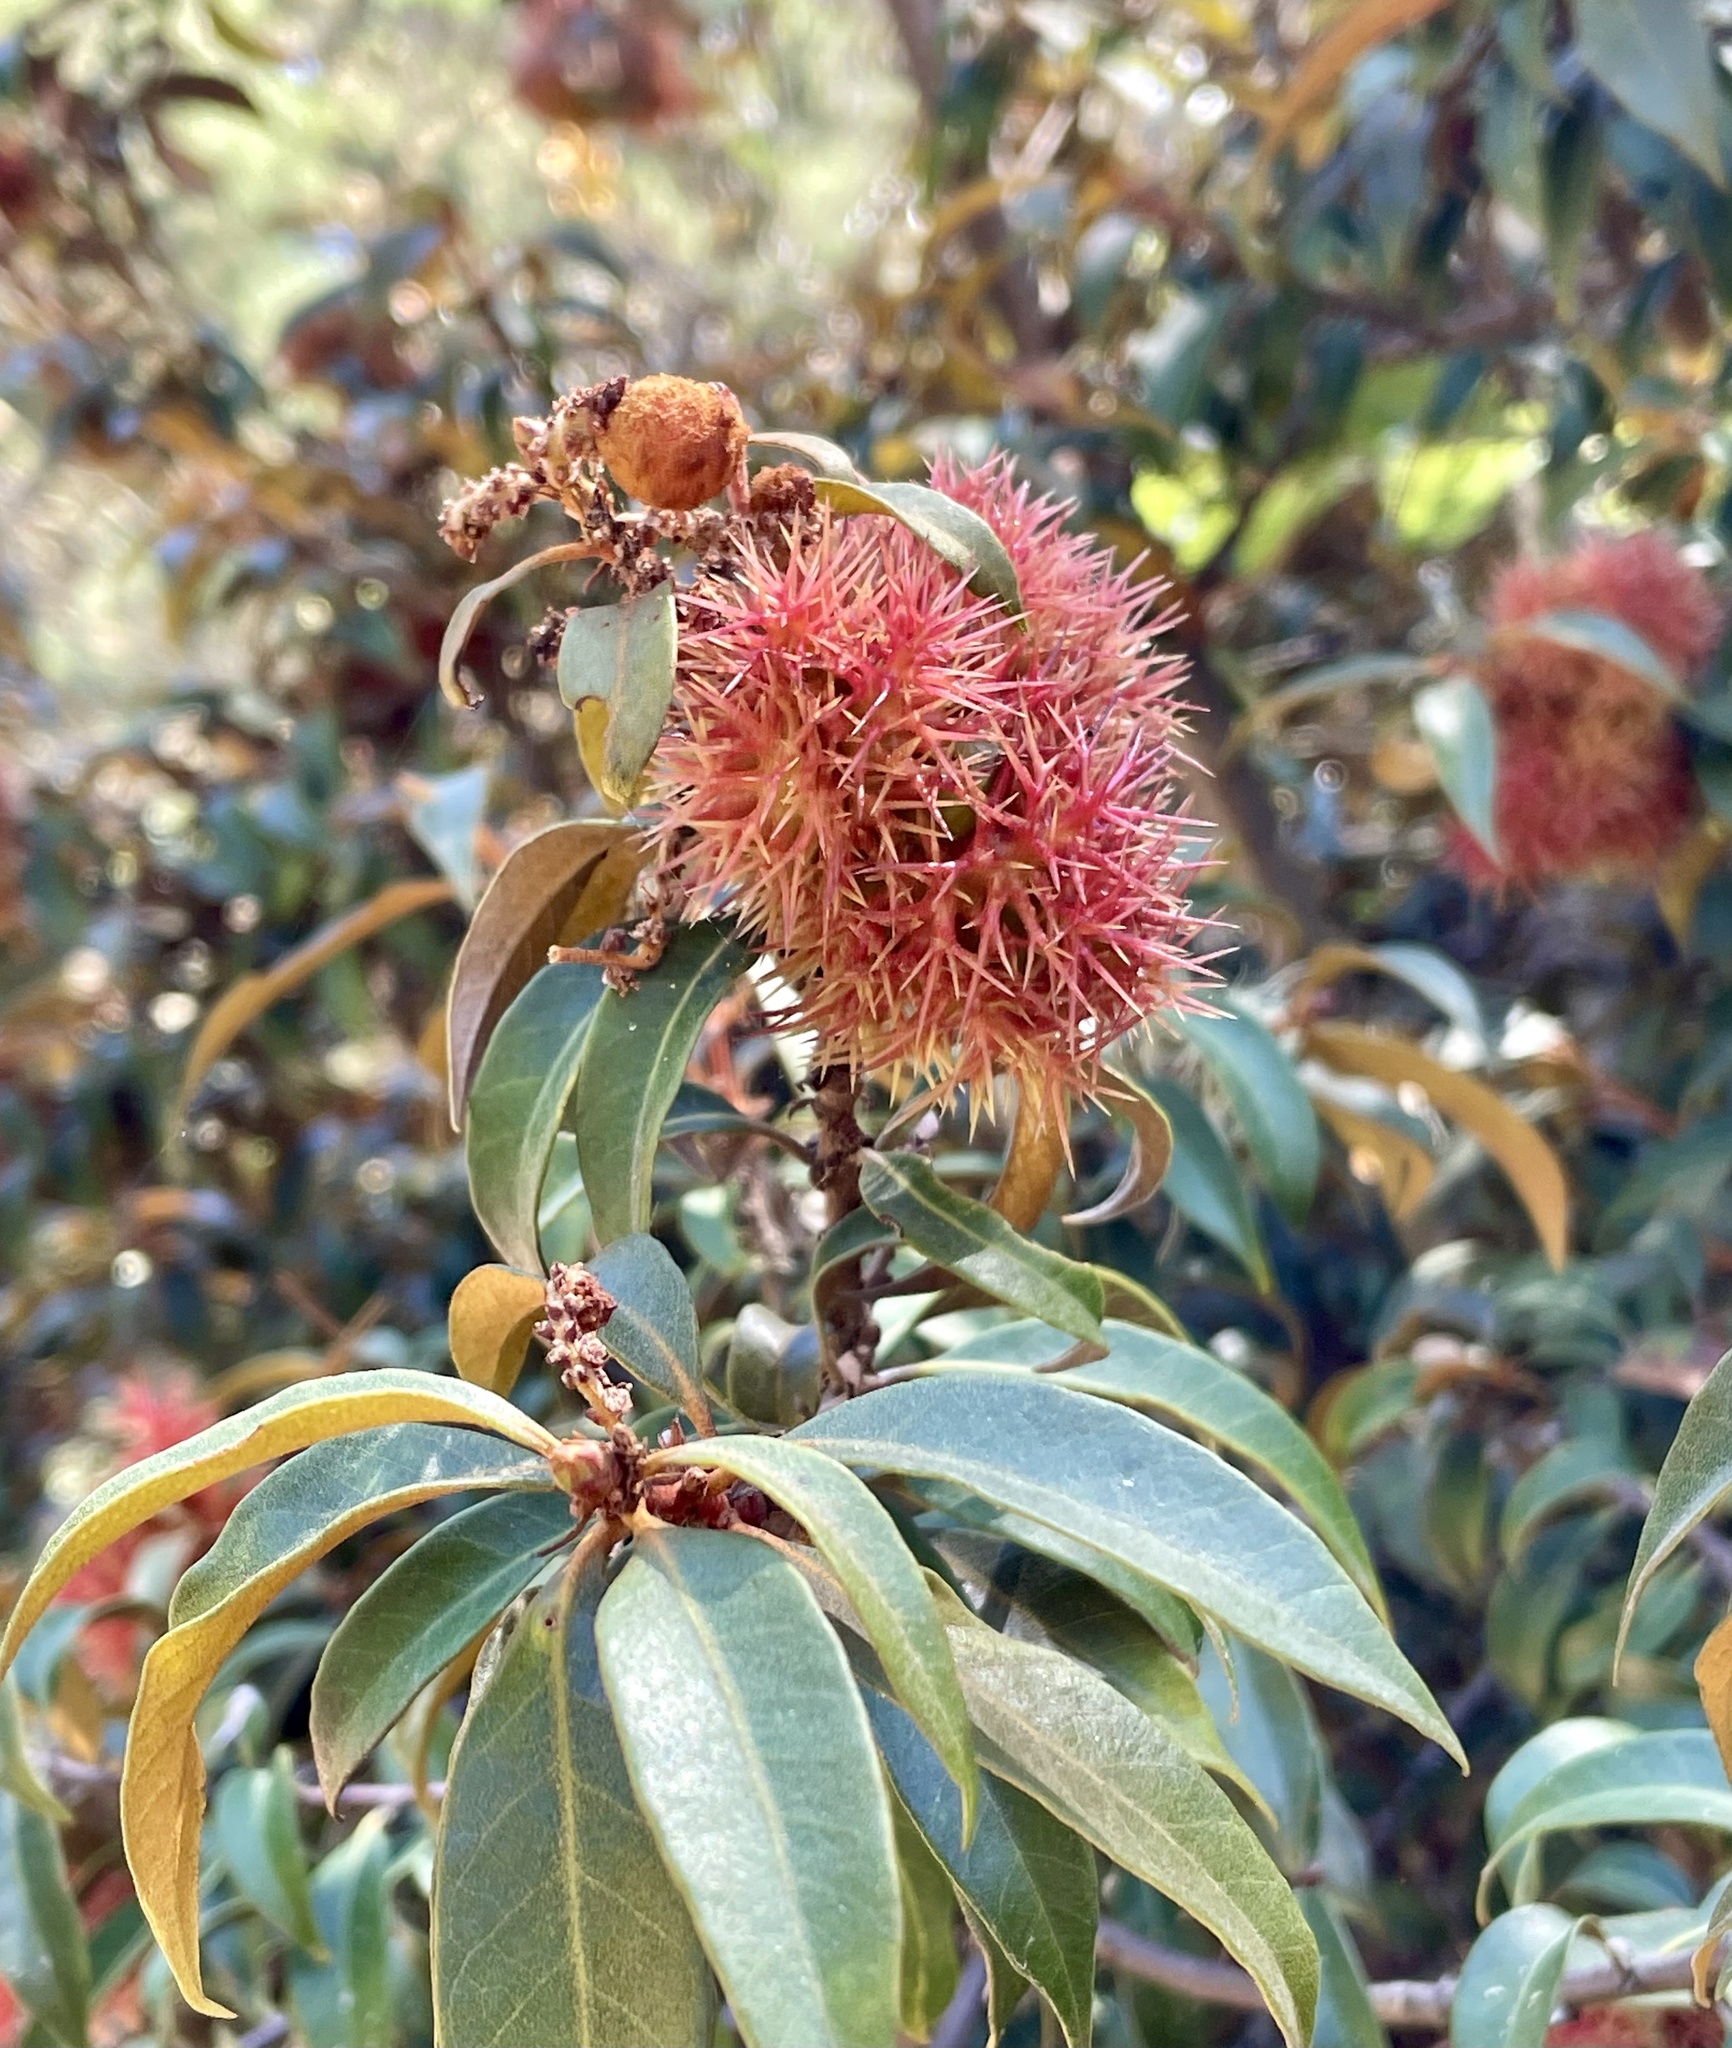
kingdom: Animalia
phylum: Arthropoda
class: Insecta
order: Hymenoptera
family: Cynipidae
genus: Synergus
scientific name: Synergus castanopsidis
